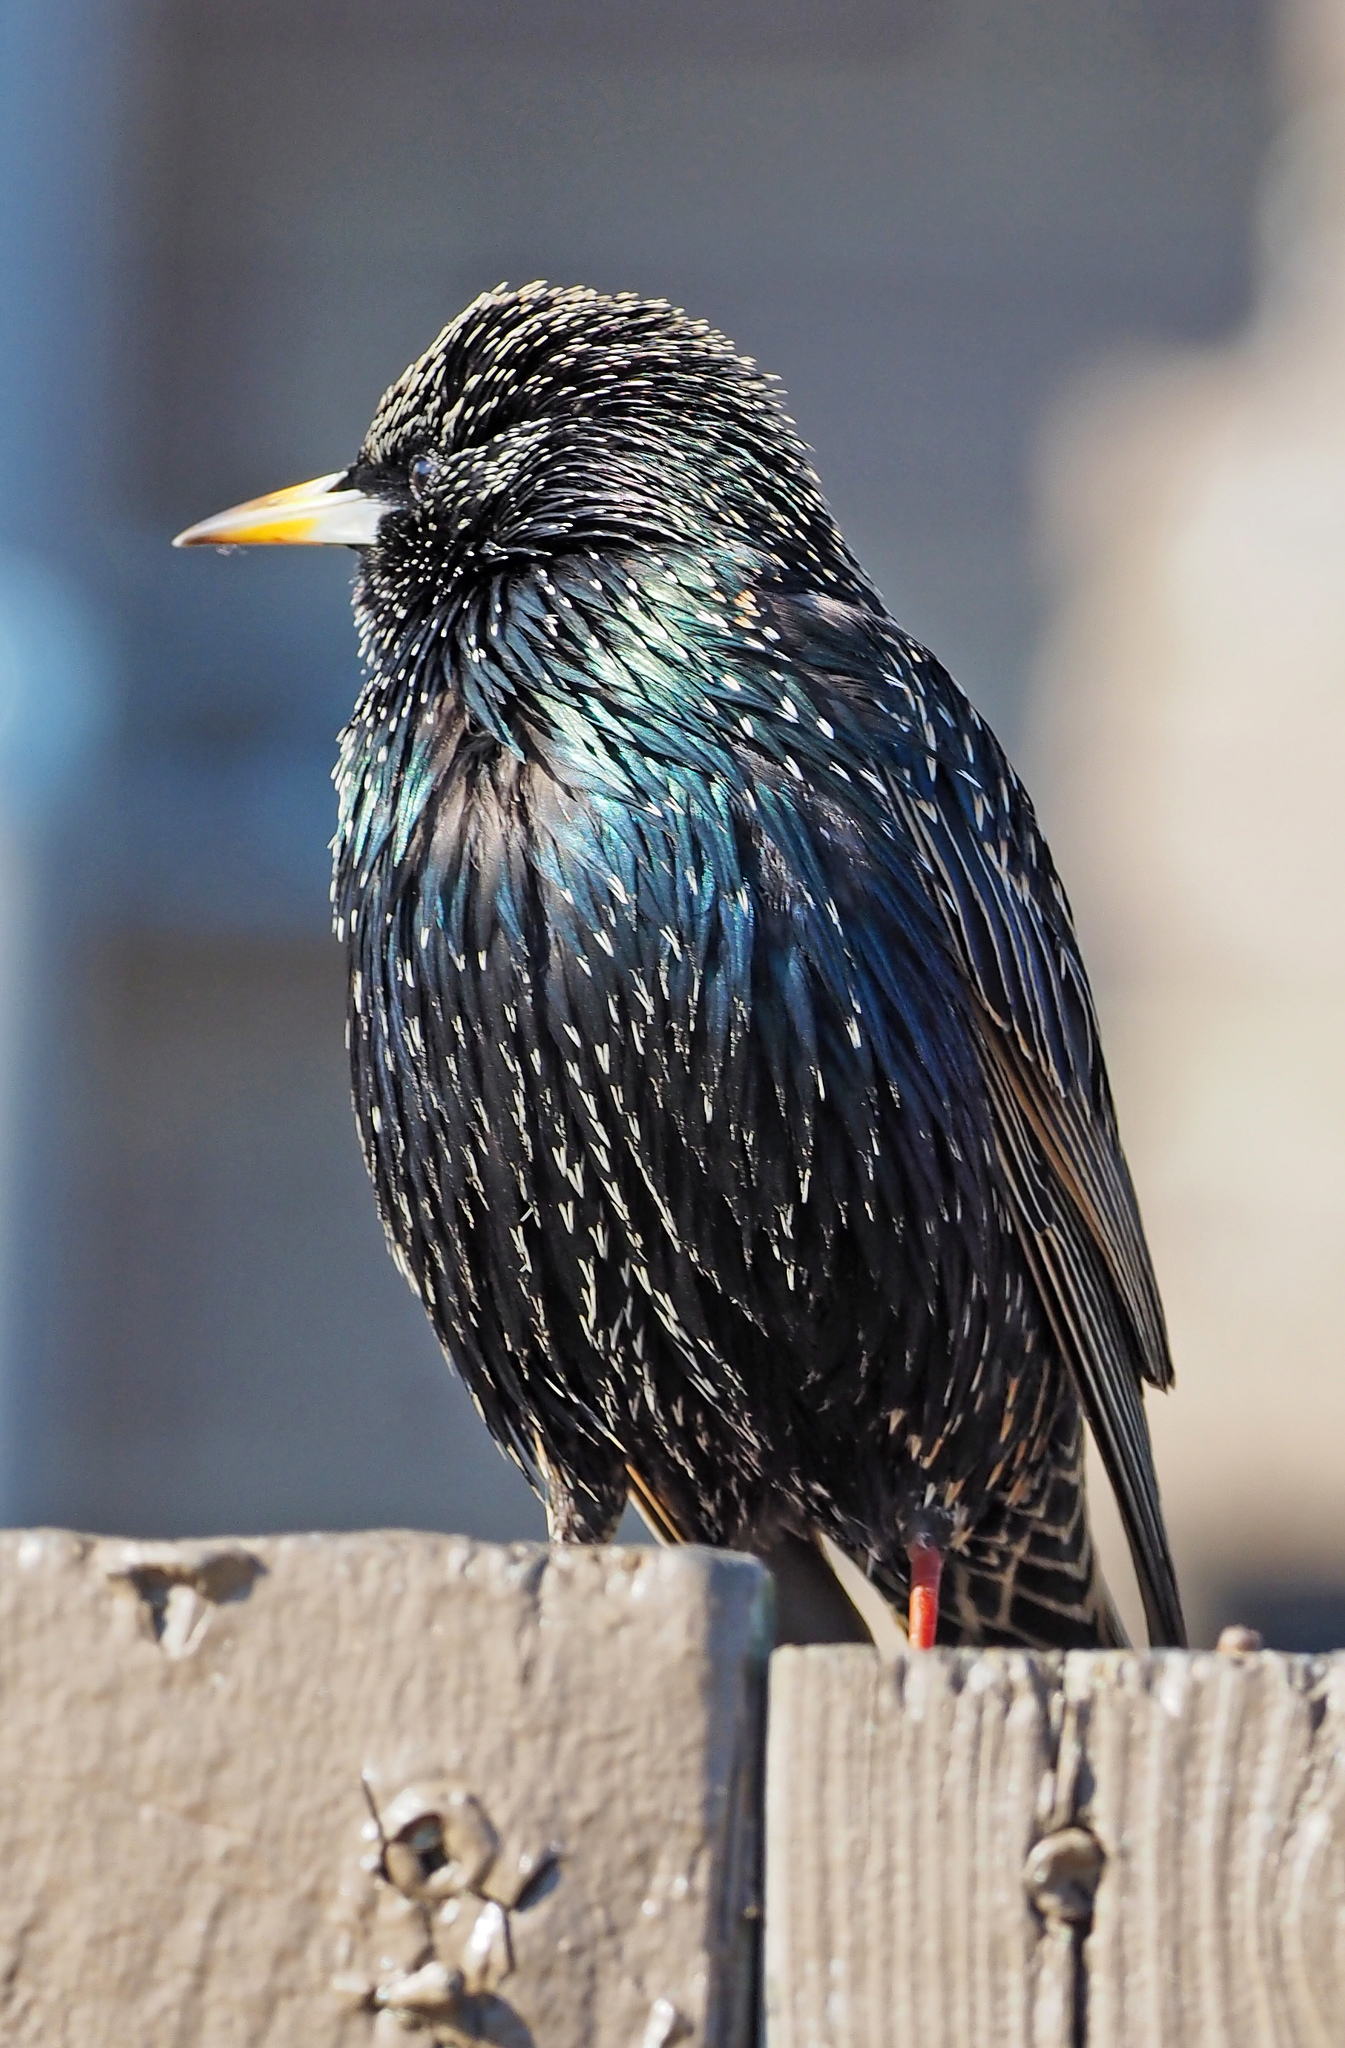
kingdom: Animalia
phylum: Chordata
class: Aves
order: Passeriformes
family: Sturnidae
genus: Sturnus
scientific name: Sturnus vulgaris
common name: Common starling
